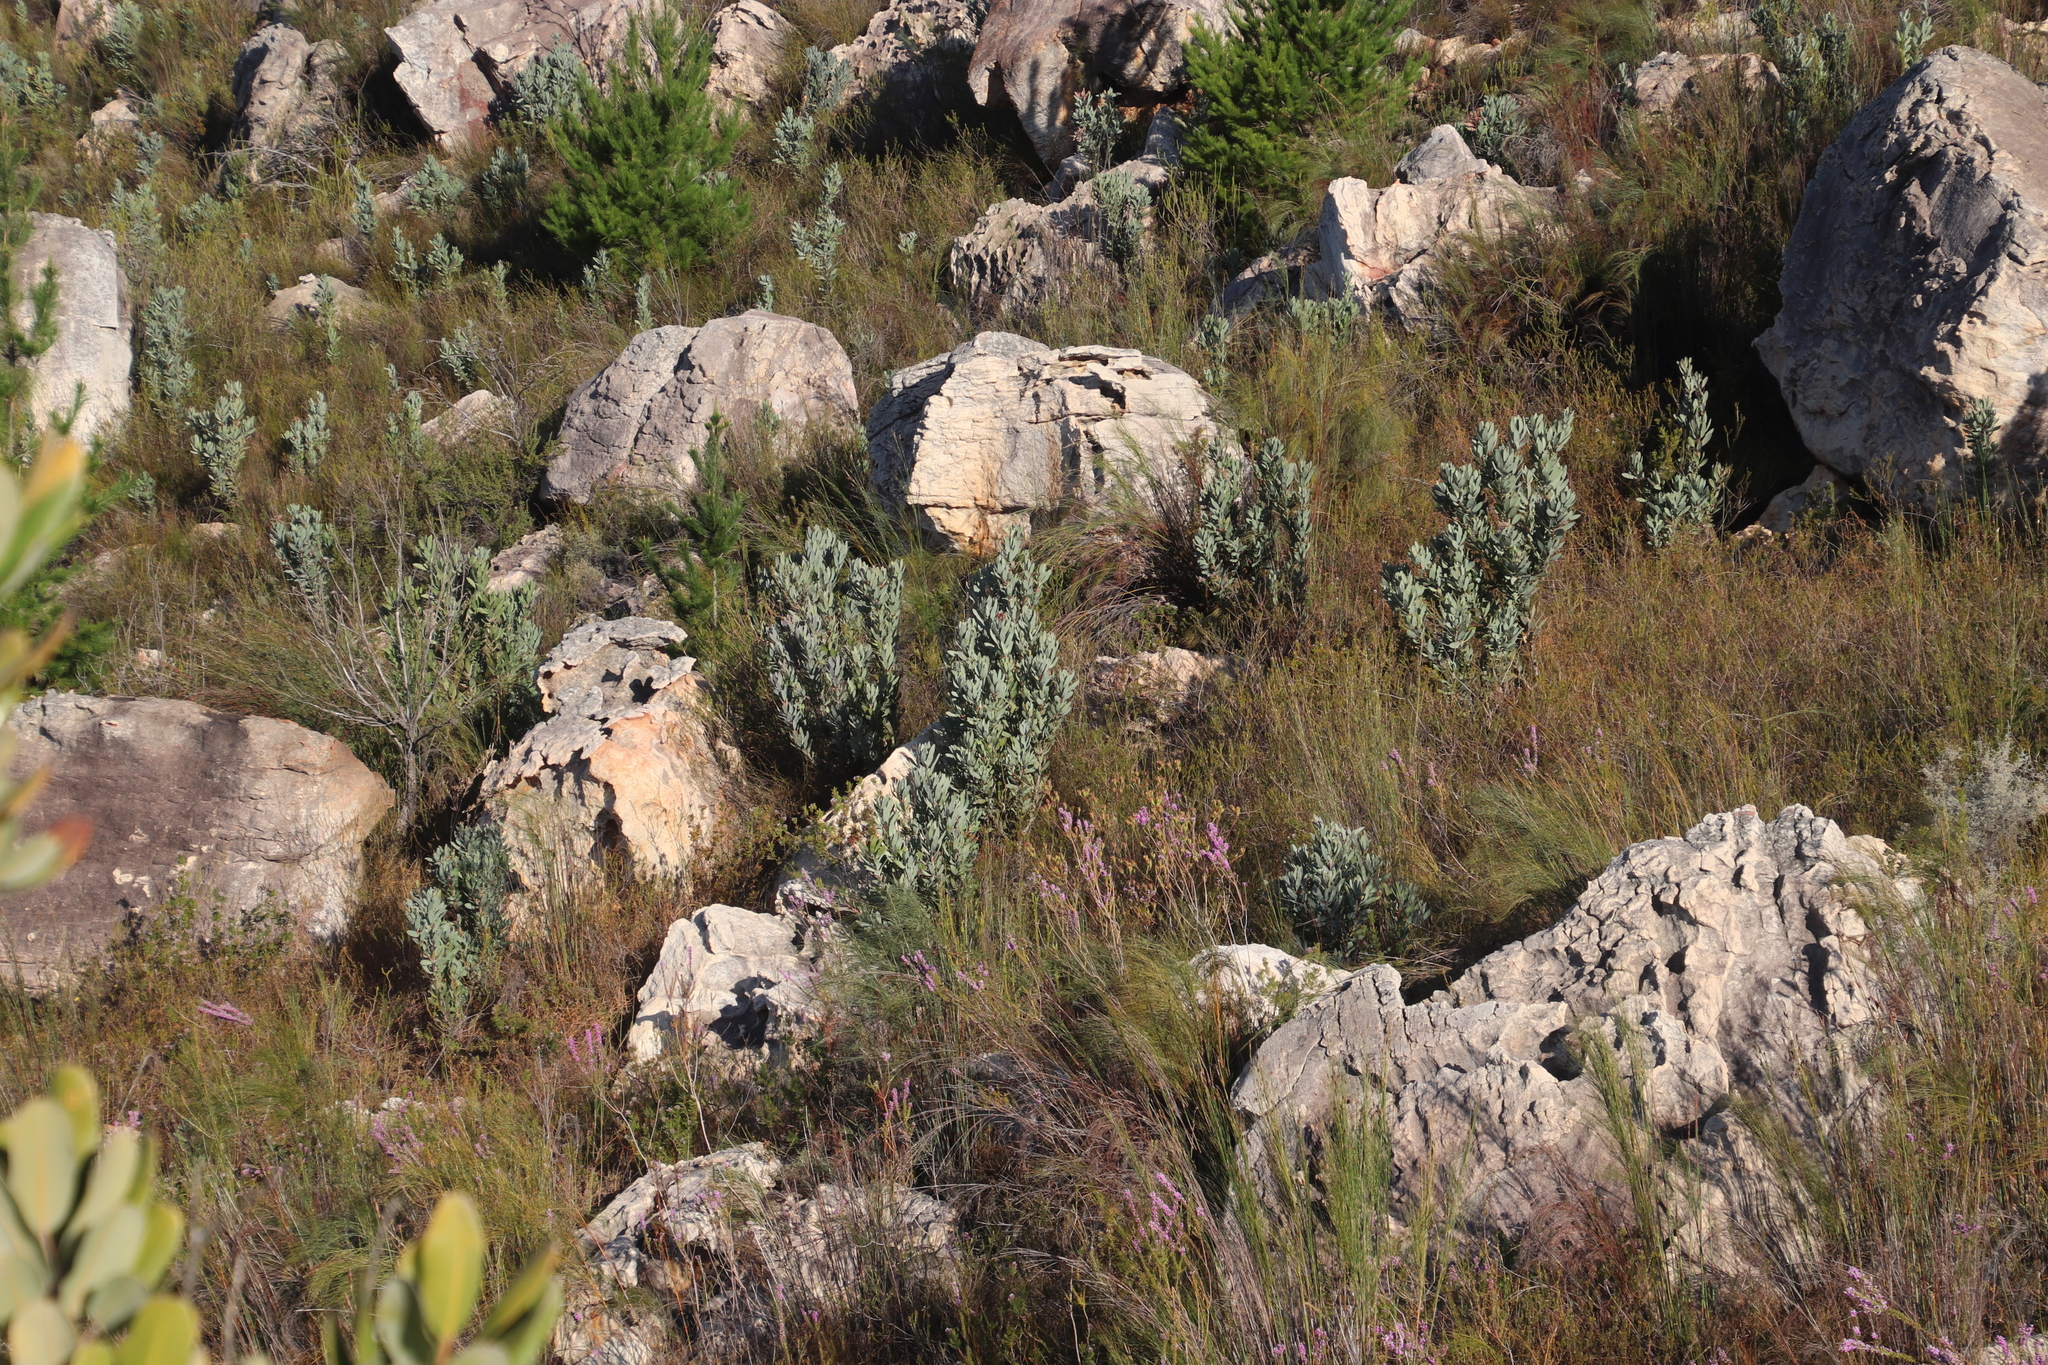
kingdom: Plantae
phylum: Tracheophyta
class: Magnoliopsida
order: Proteales
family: Proteaceae
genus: Protea
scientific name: Protea laurifolia
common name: Grey-leaf sugarbsh
